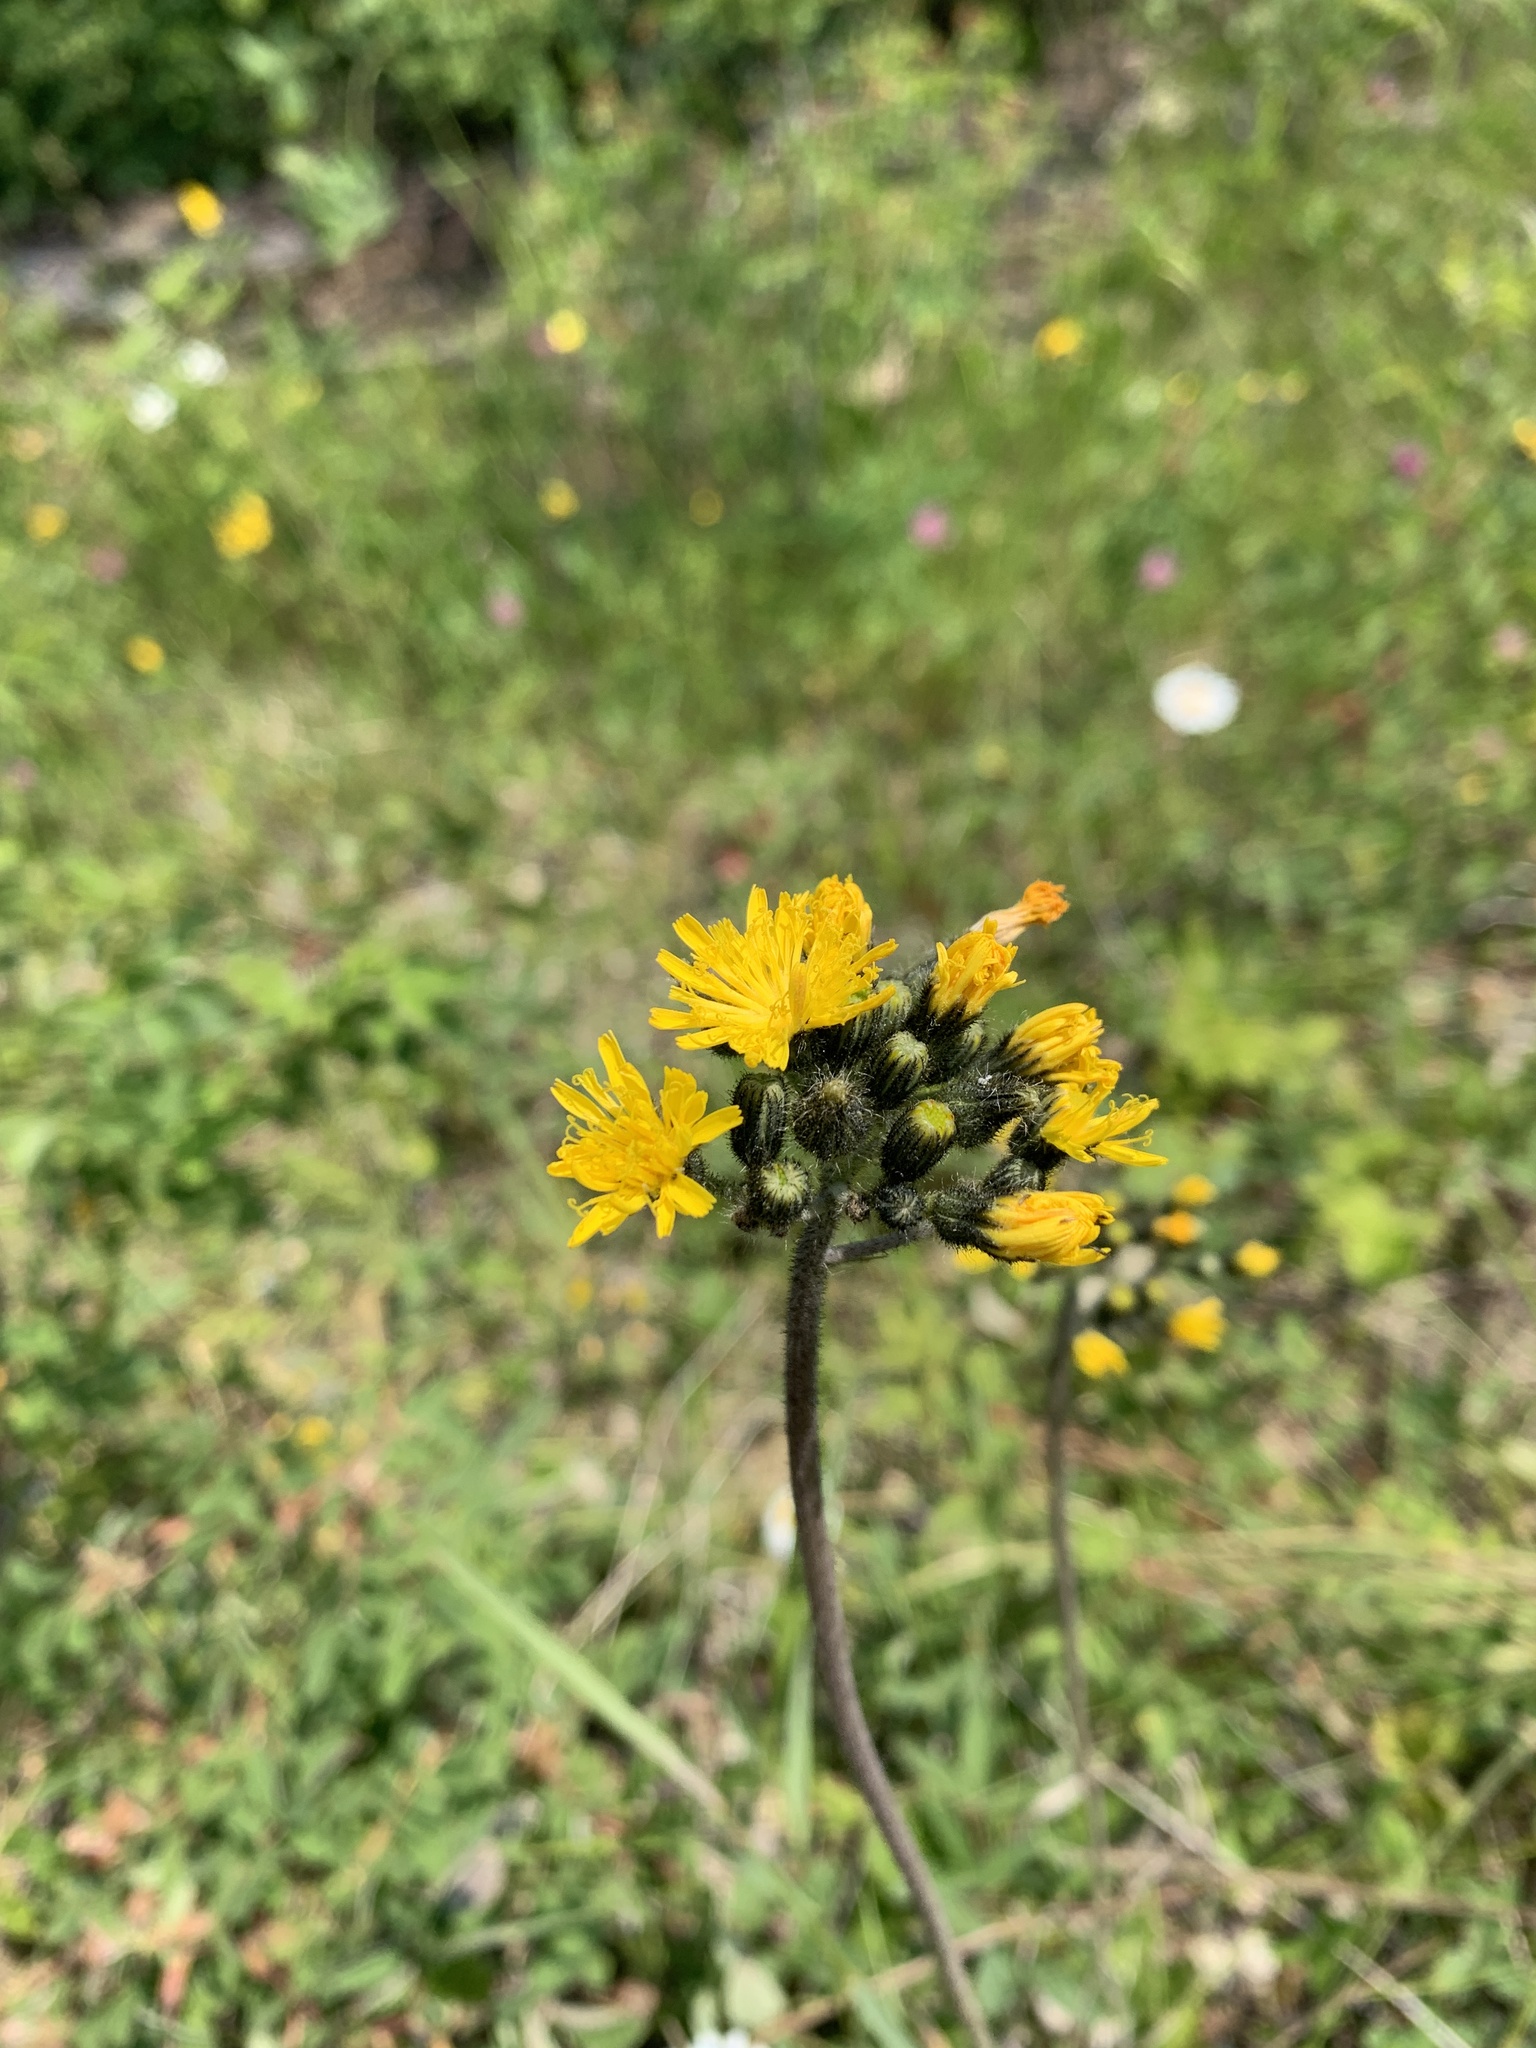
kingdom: Plantae
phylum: Tracheophyta
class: Magnoliopsida
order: Asterales
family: Asteraceae
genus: Pilosella
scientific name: Pilosella caespitosa
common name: Yellow fox-and-cubs
